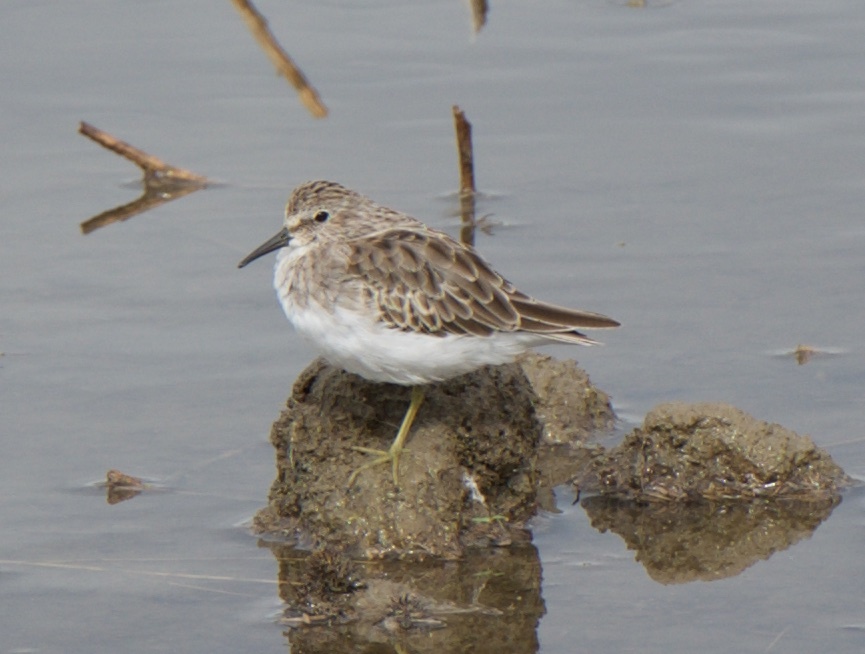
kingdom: Animalia
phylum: Chordata
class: Aves
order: Charadriiformes
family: Scolopacidae
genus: Calidris
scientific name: Calidris minutilla
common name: Least sandpiper
